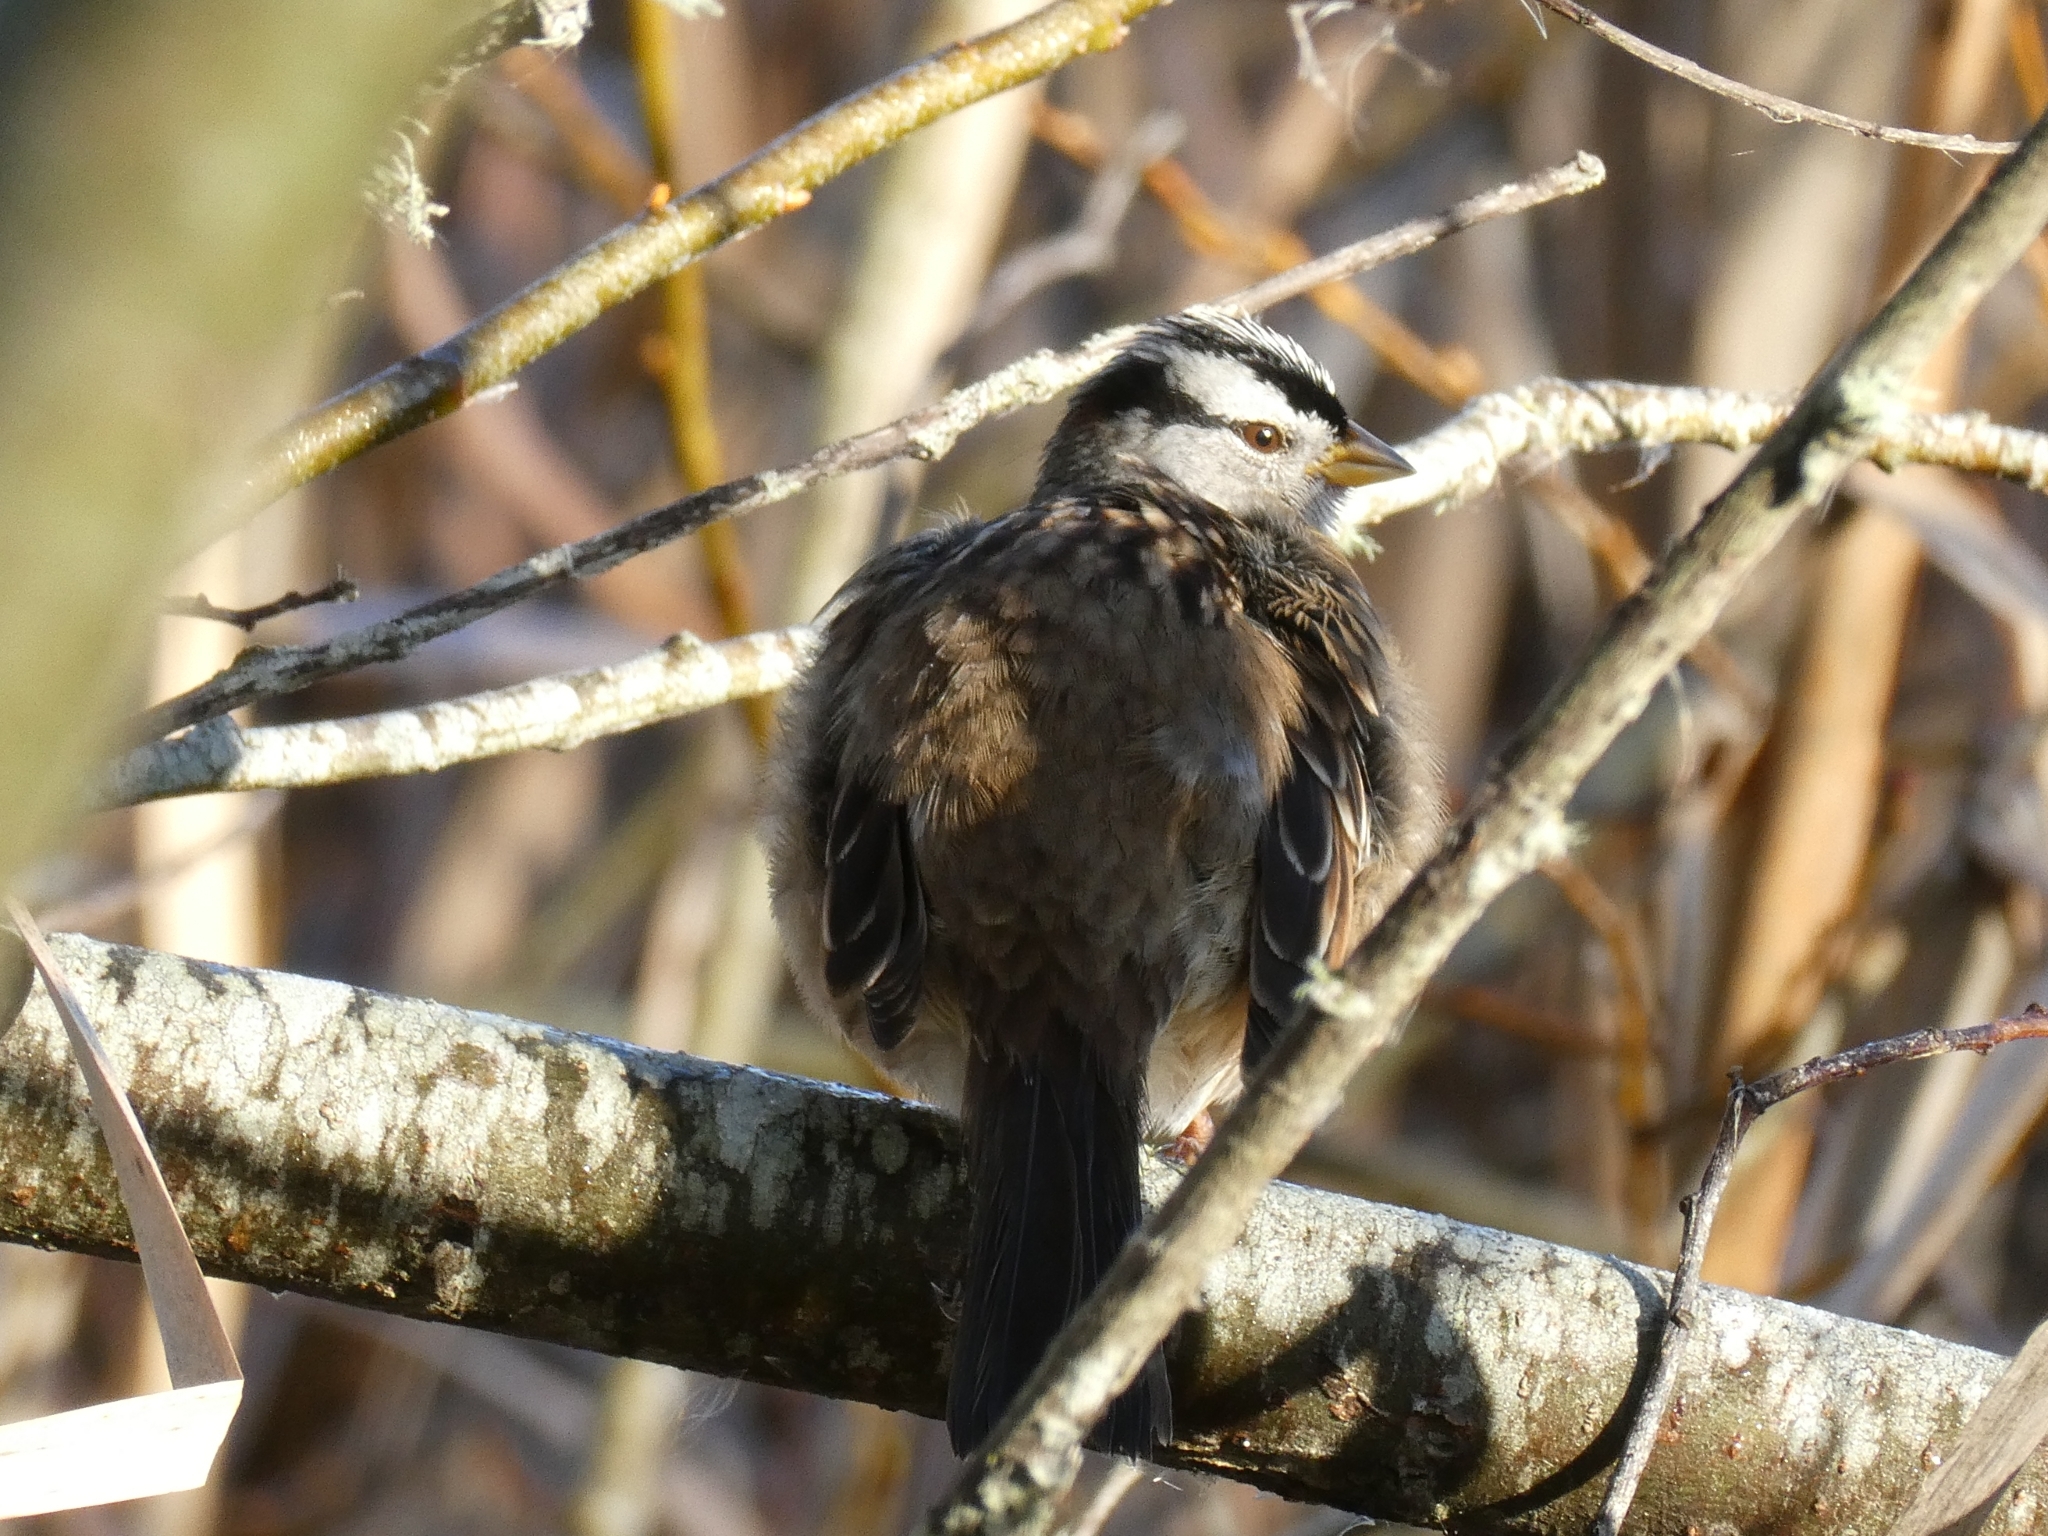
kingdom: Animalia
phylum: Chordata
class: Aves
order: Passeriformes
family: Passerellidae
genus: Zonotrichia
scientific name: Zonotrichia leucophrys
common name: White-crowned sparrow
